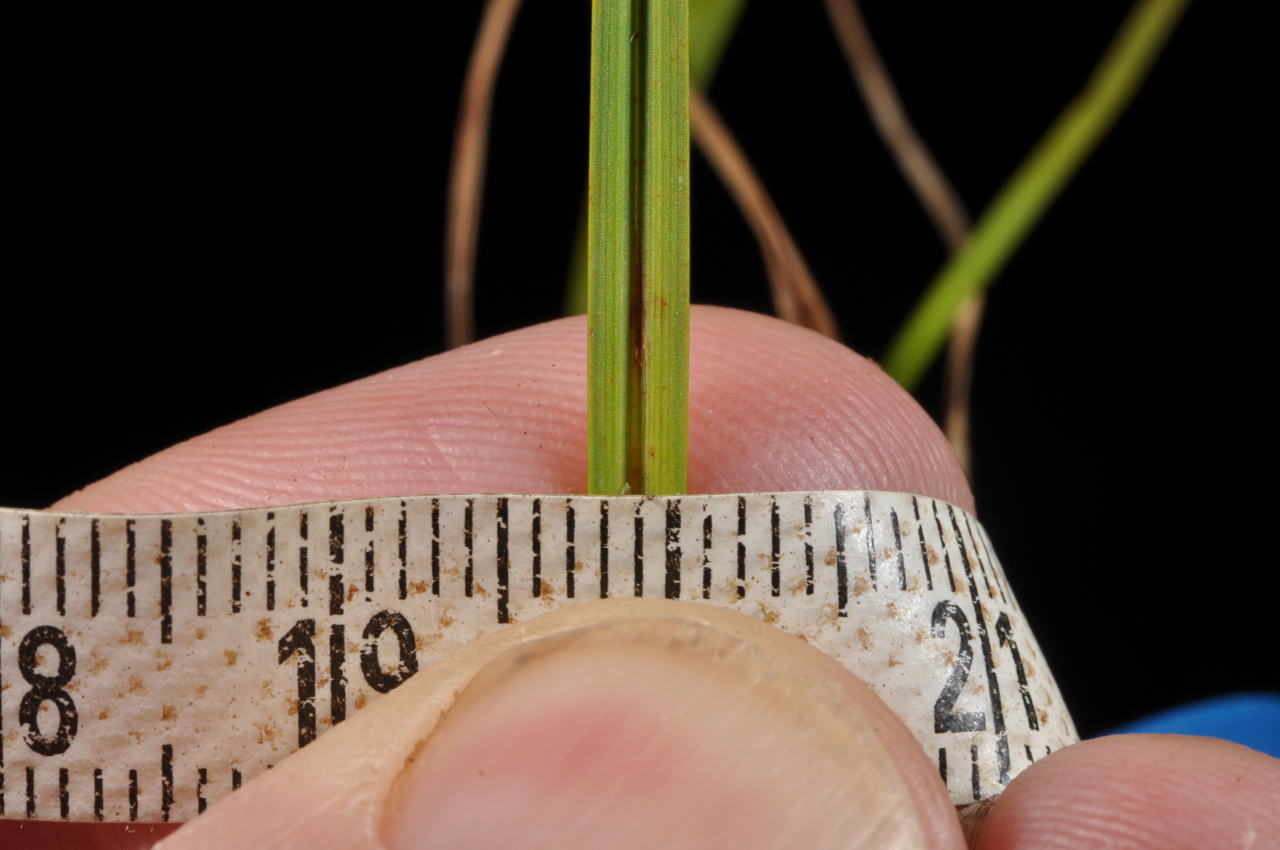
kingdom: Plantae
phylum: Tracheophyta
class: Liliopsida
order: Poales
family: Cyperaceae
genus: Carex
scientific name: Carex gaudichaudiana
